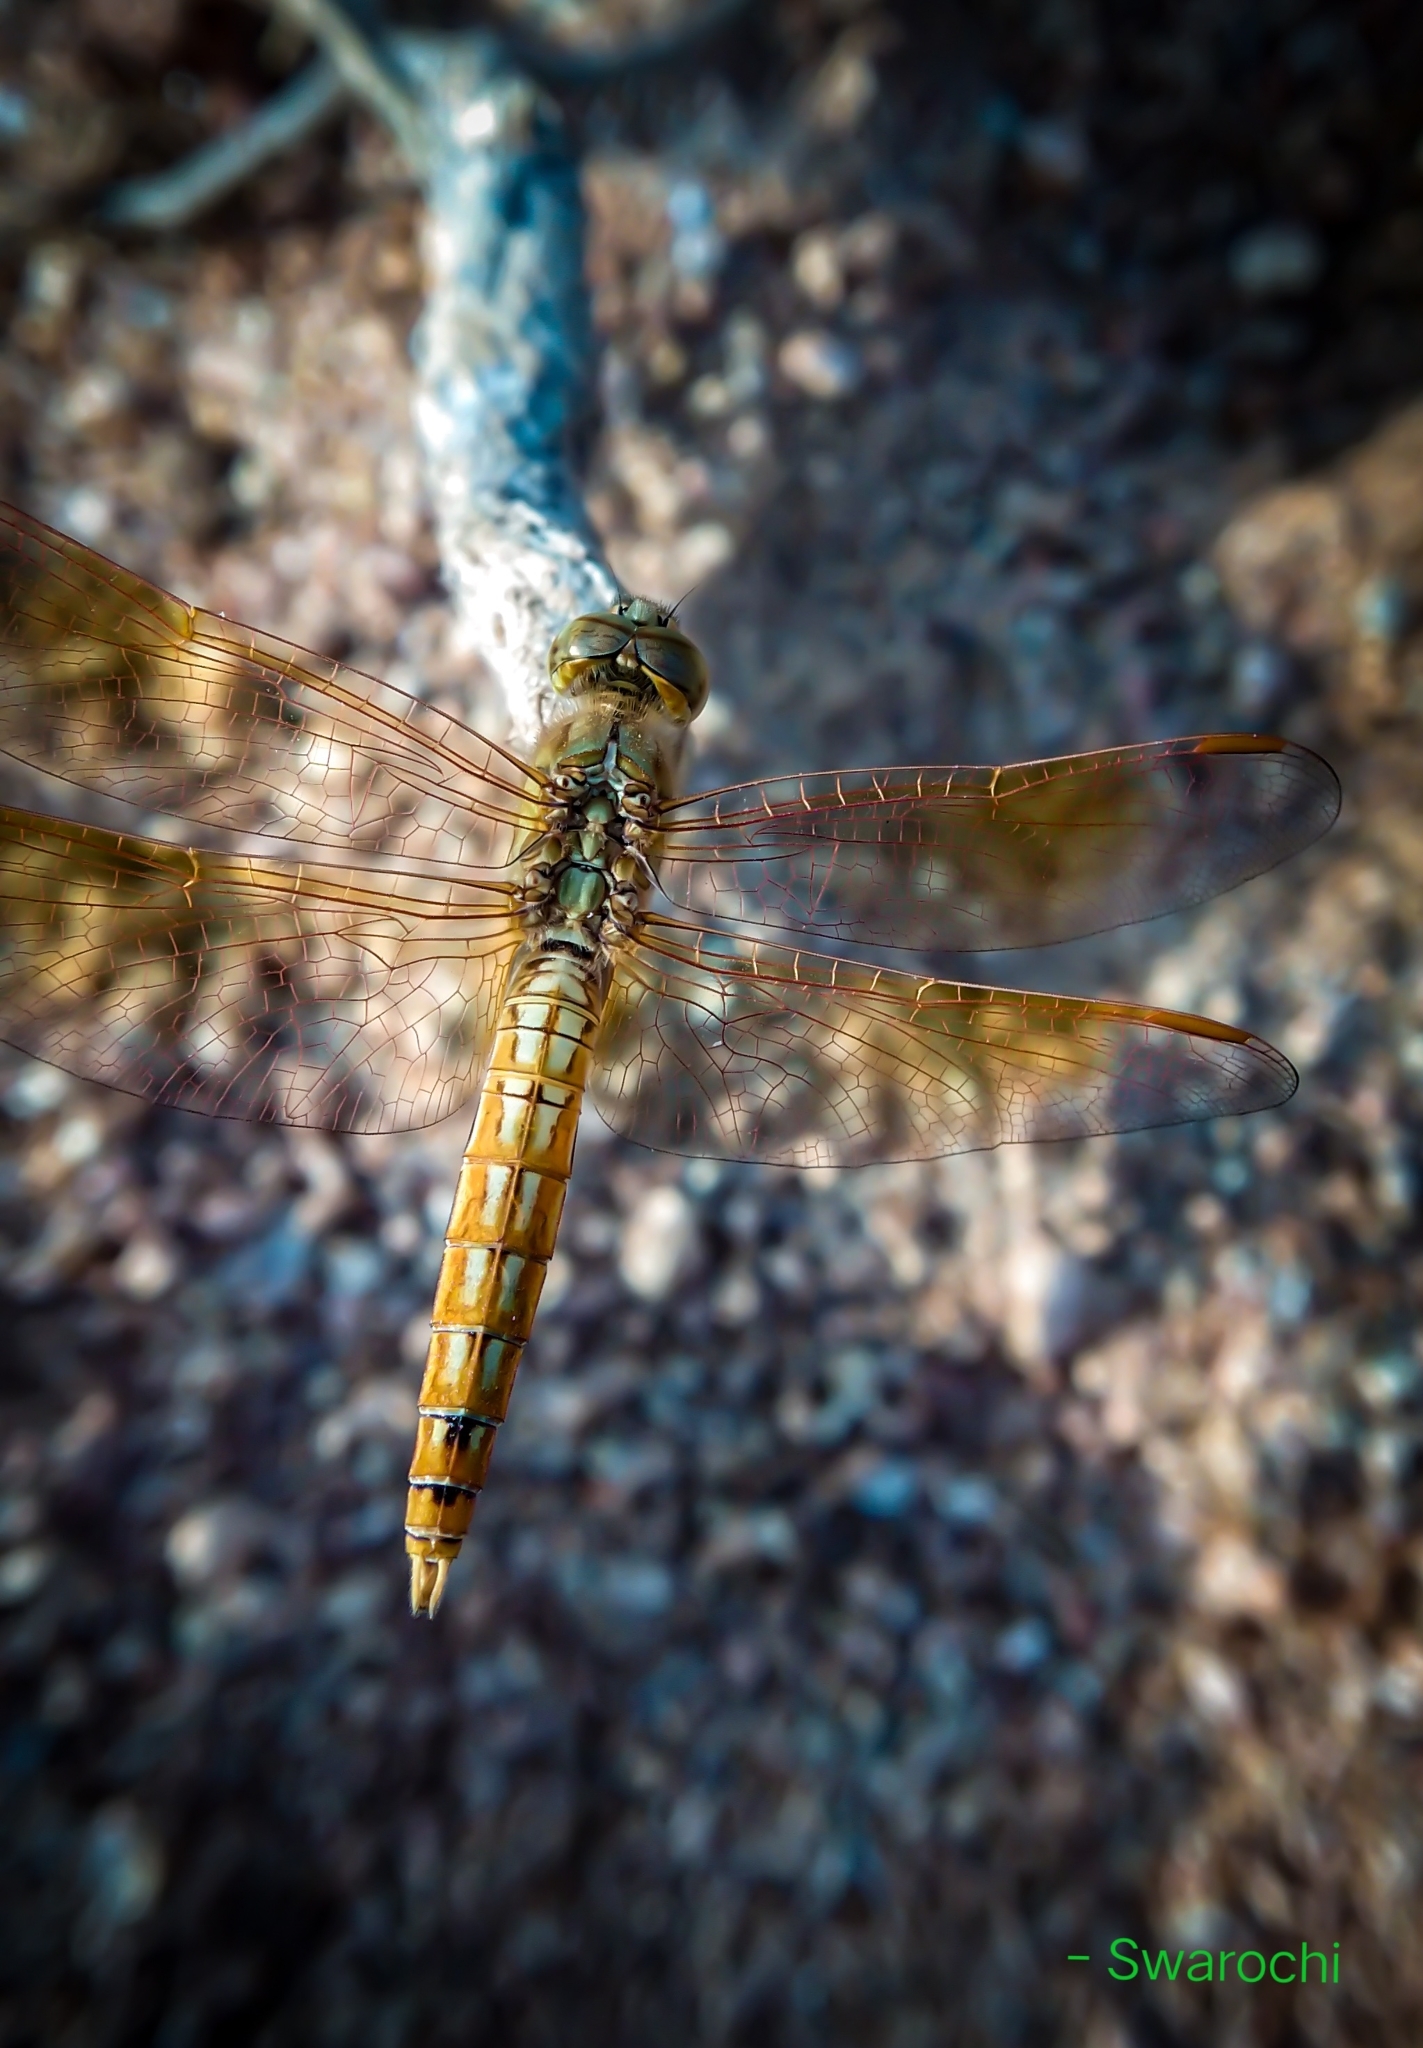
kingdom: Animalia
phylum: Arthropoda
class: Insecta
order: Odonata
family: Libellulidae
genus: Brachythemis
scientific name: Brachythemis contaminata
